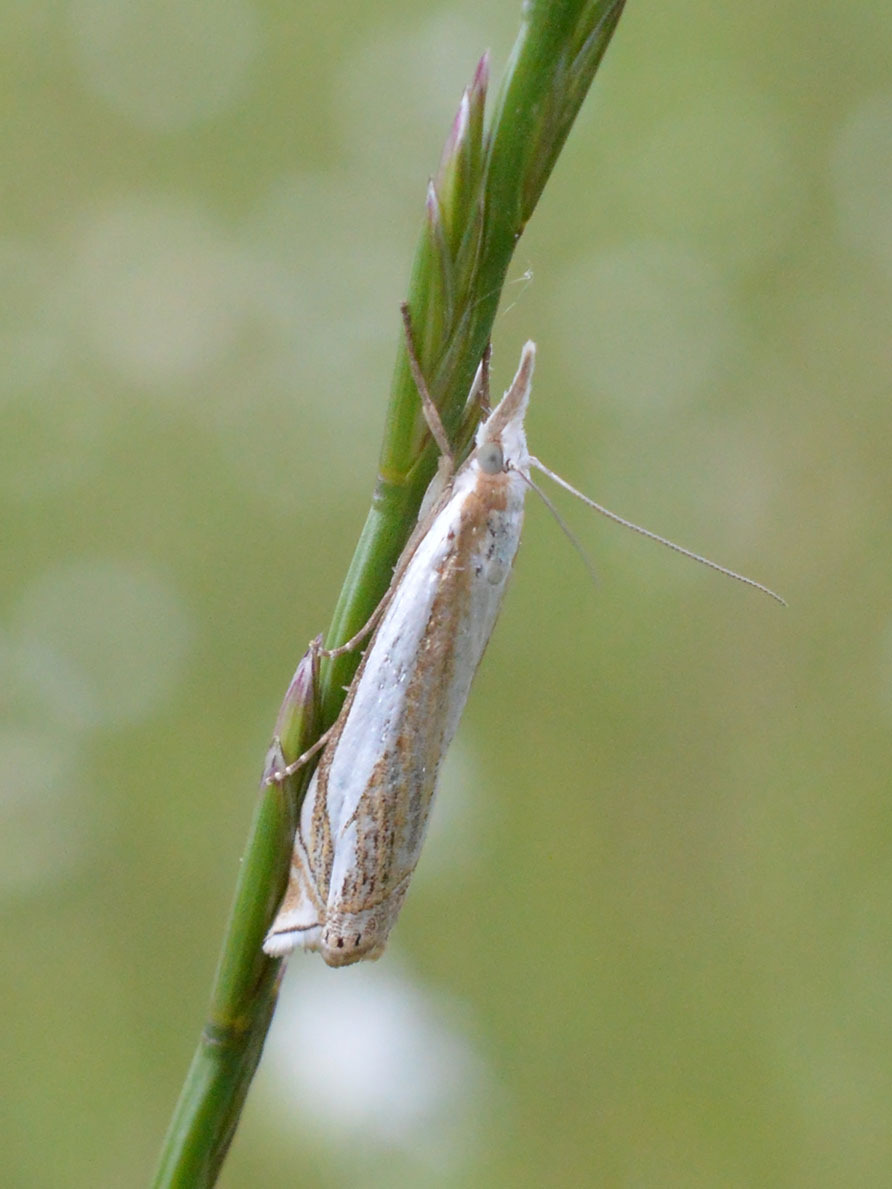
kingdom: Animalia
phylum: Arthropoda
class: Insecta
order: Lepidoptera
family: Crambidae
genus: Crambus
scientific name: Crambus pascuella
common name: Inlaid grass-veneer
